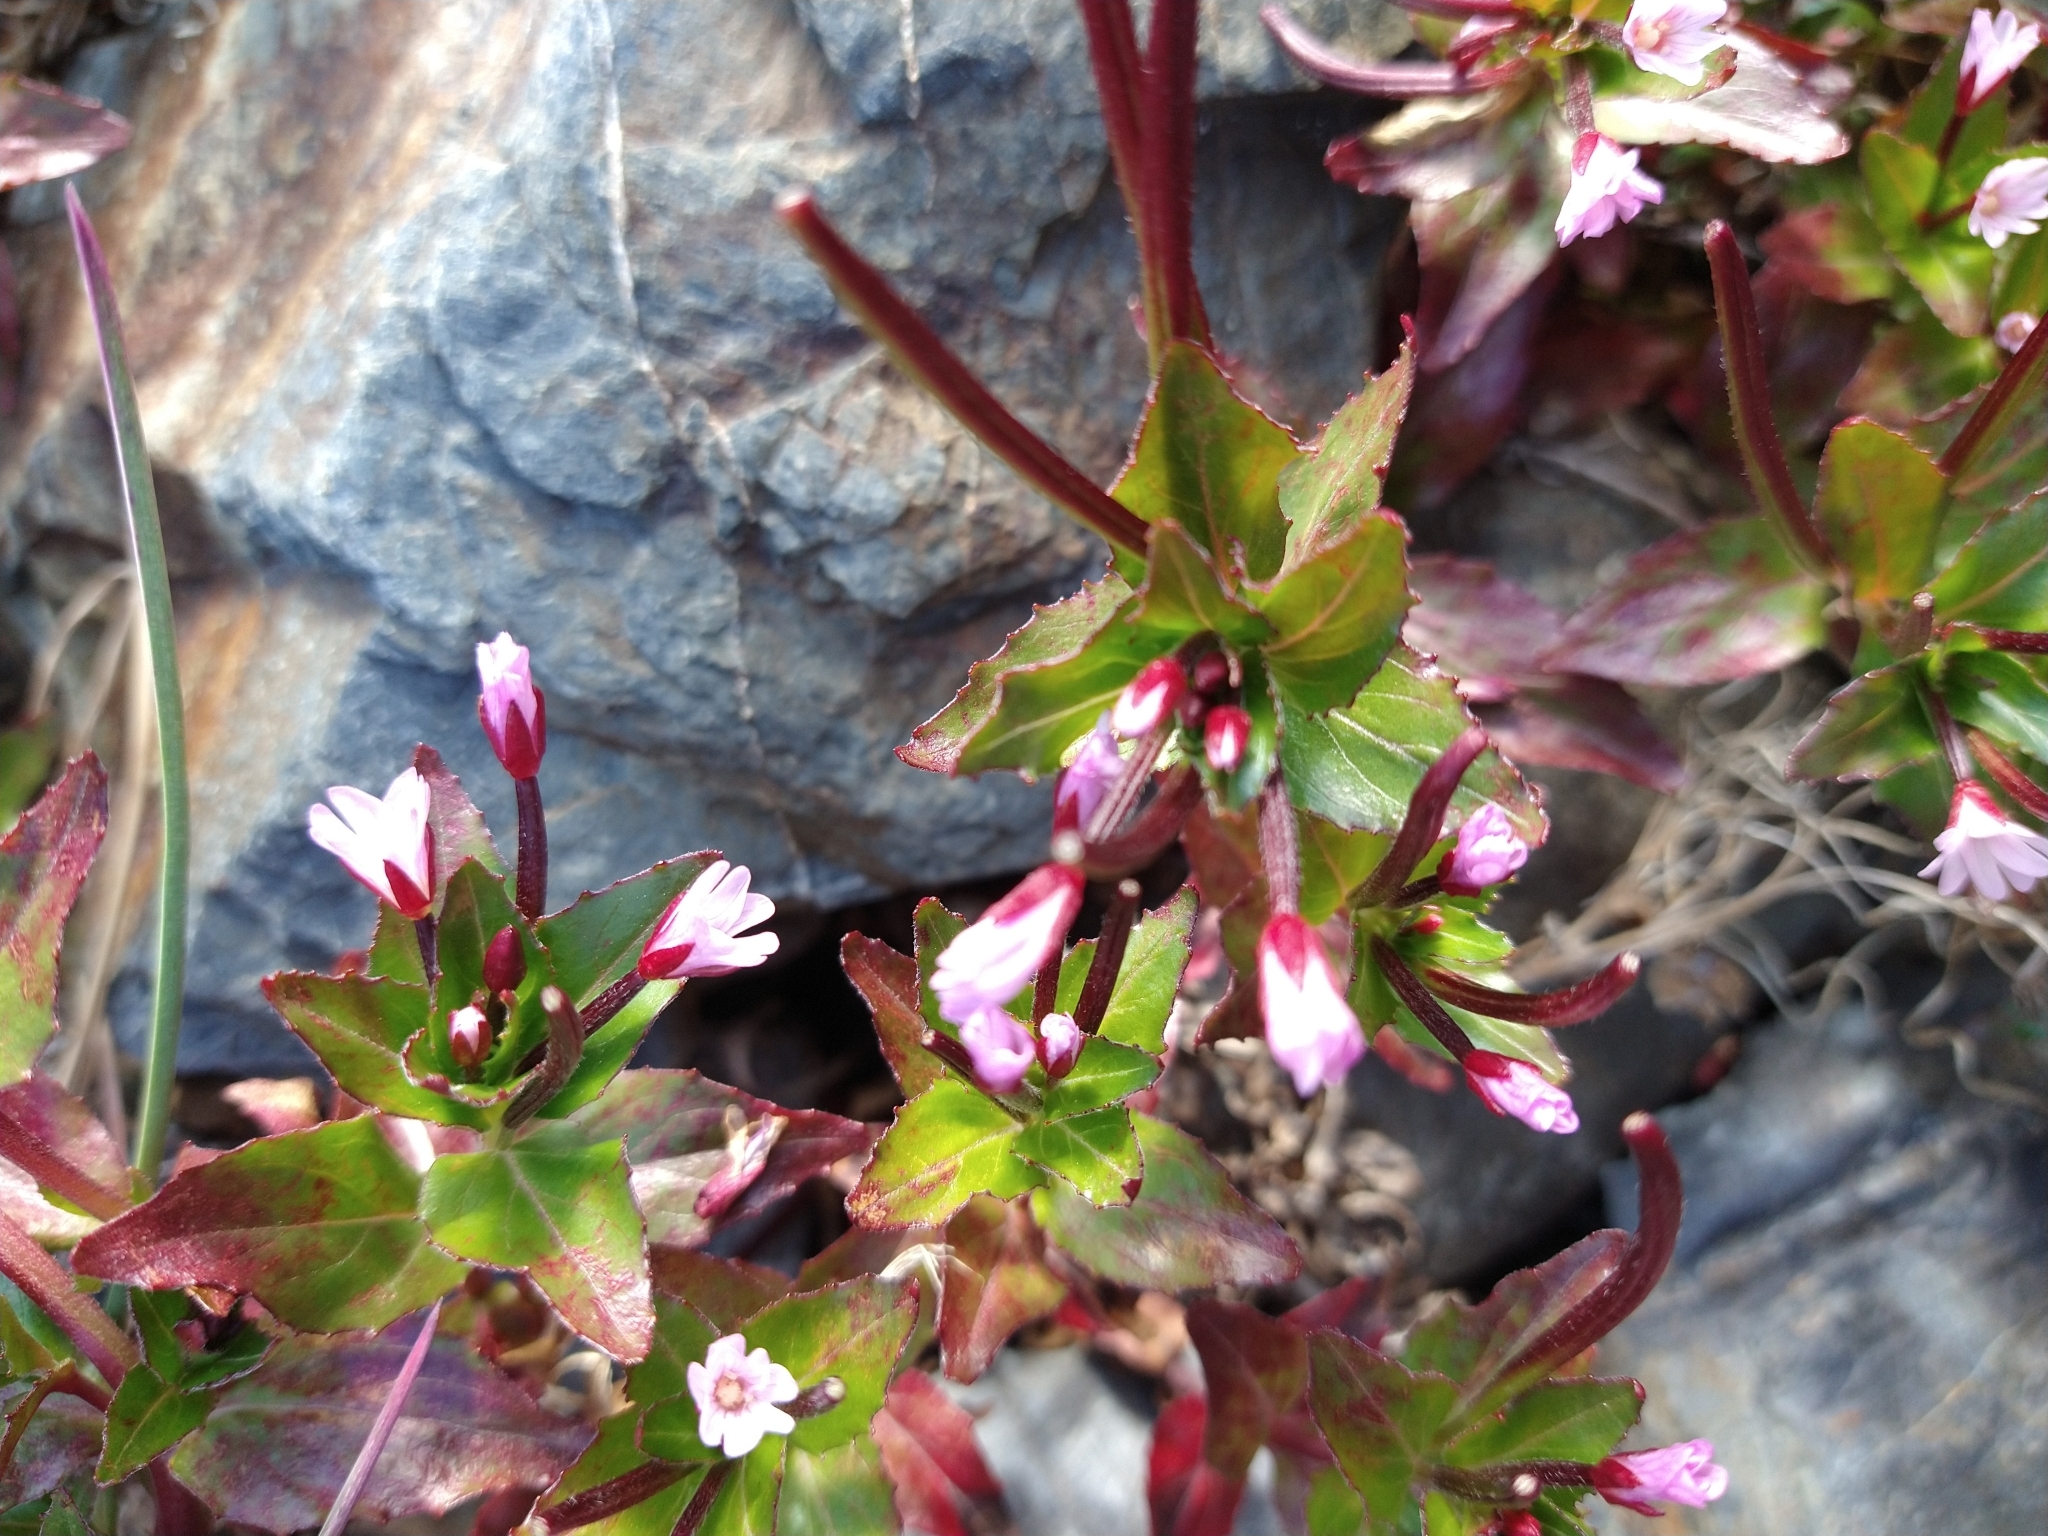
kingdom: Plantae
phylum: Tracheophyta
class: Magnoliopsida
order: Myrtales
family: Onagraceae
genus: Epilobium
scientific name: Epilobium australe
